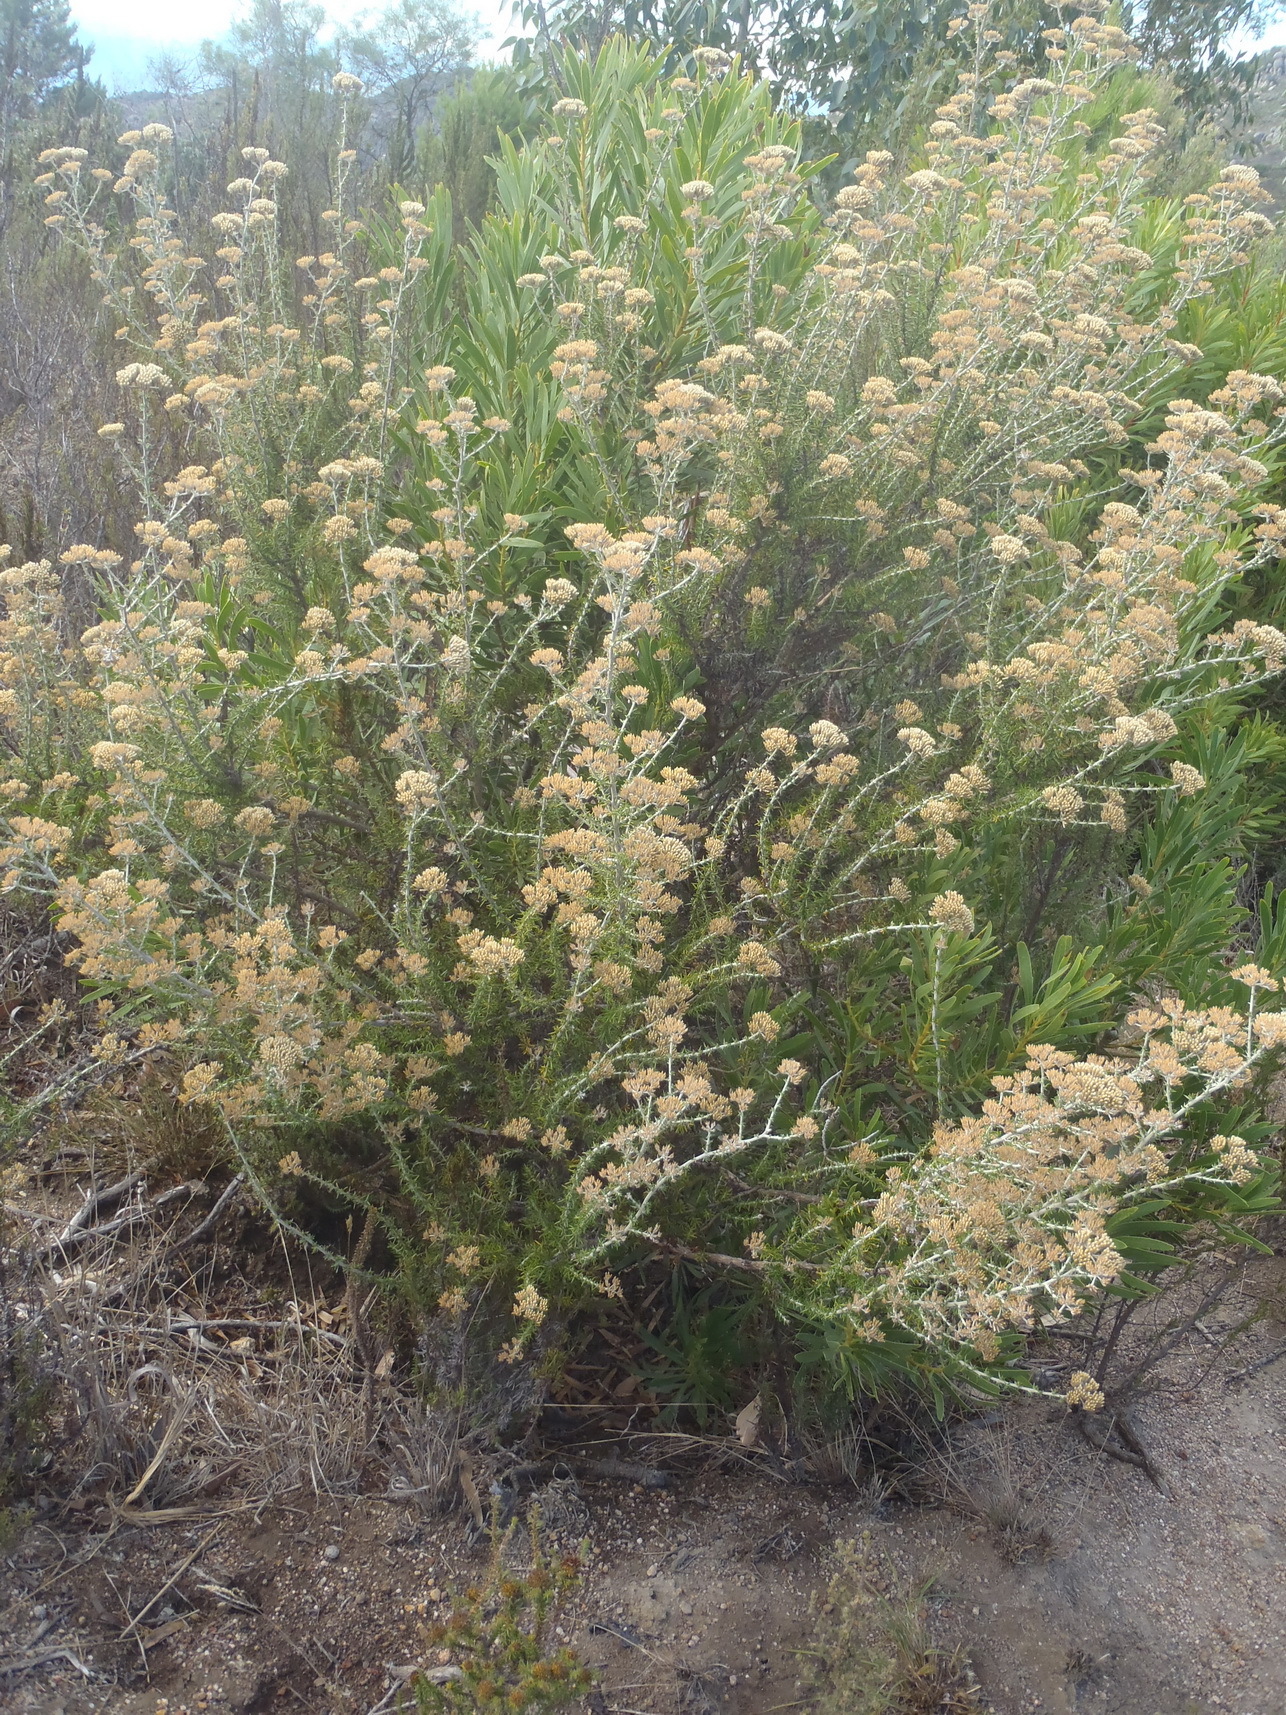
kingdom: Plantae
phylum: Tracheophyta
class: Magnoliopsida
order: Asterales
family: Asteraceae
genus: Metalasia
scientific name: Metalasia dregeana
